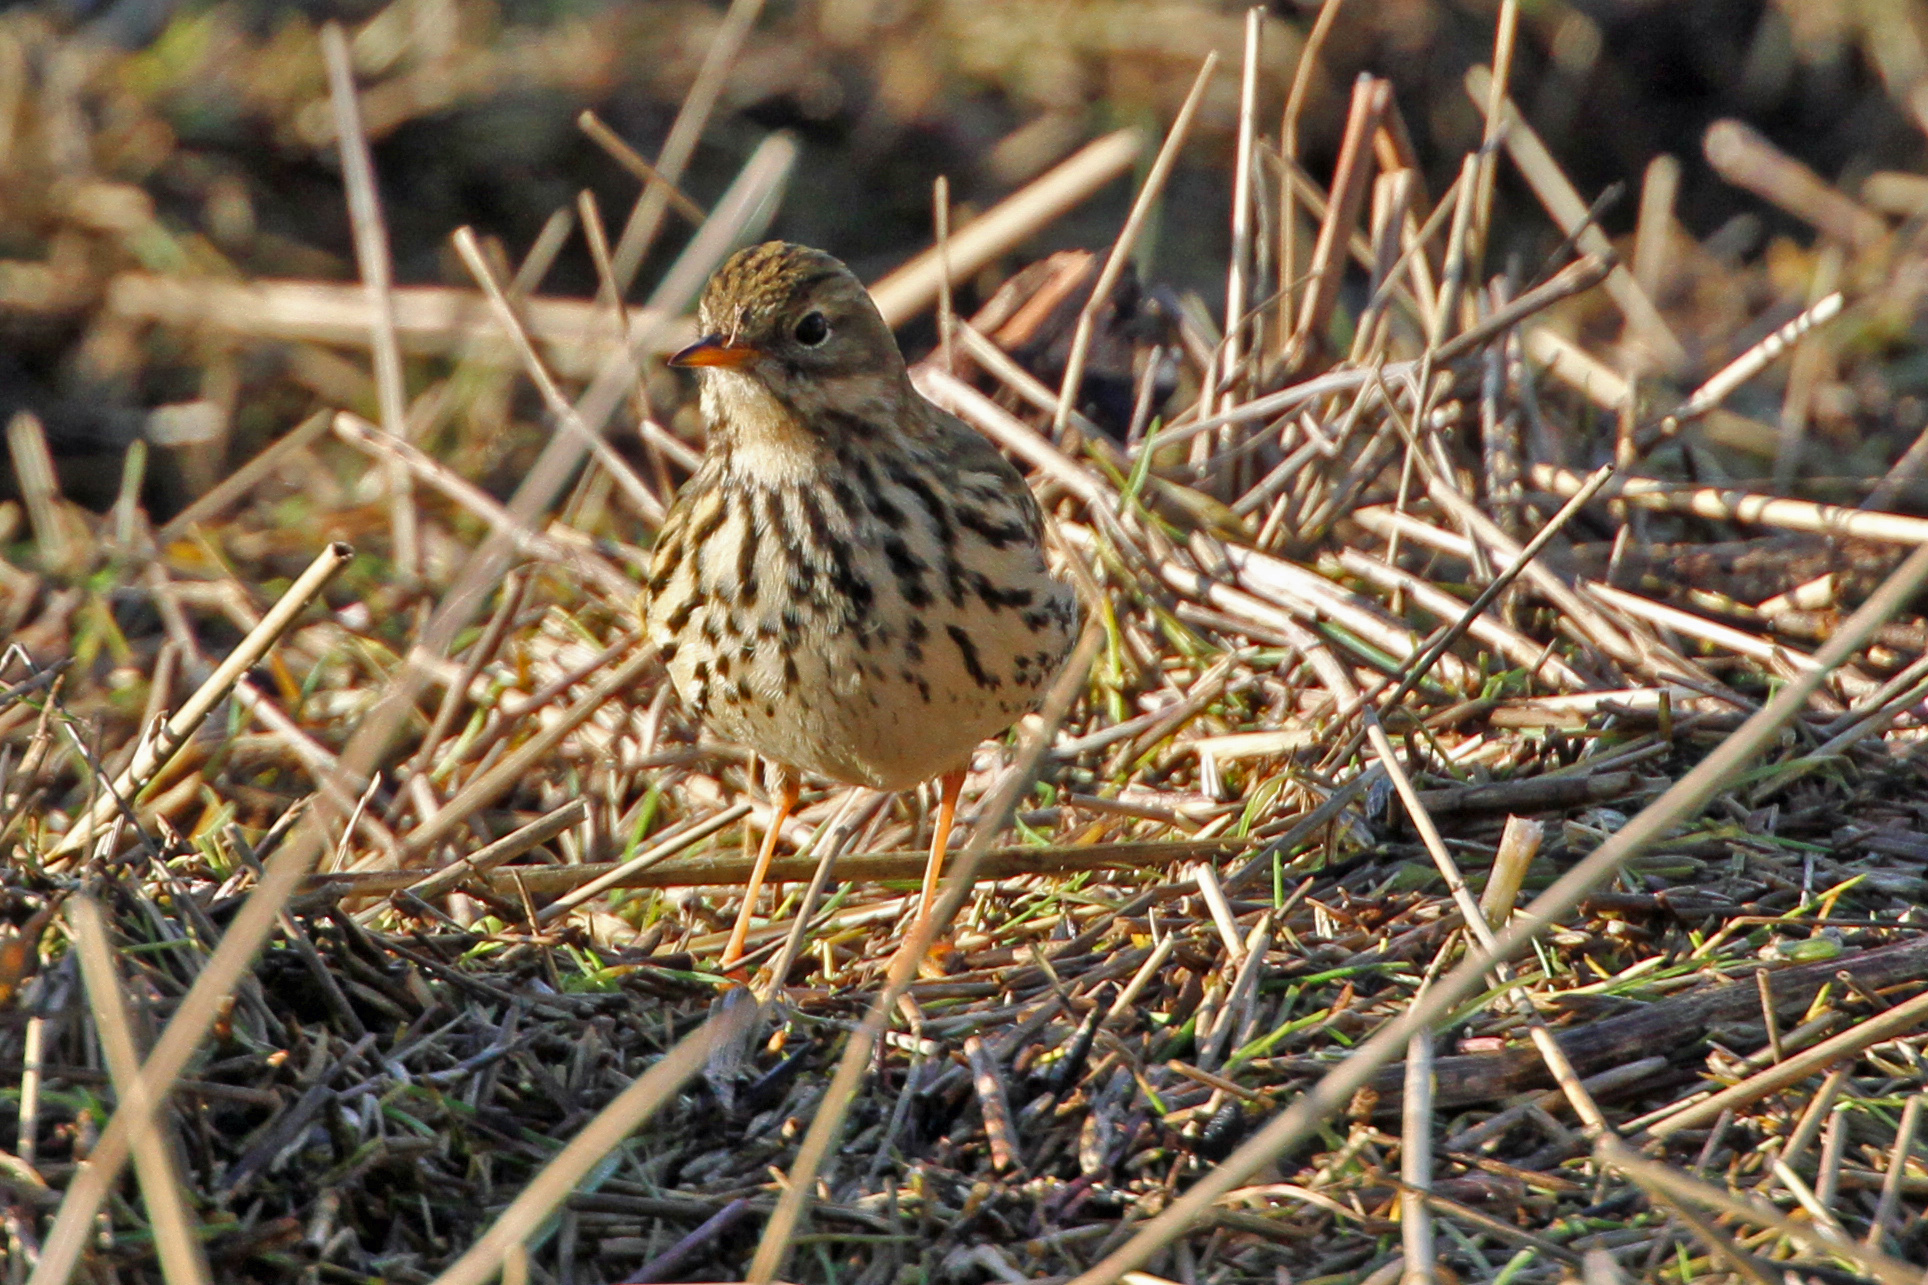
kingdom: Animalia
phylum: Chordata
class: Aves
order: Passeriformes
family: Motacillidae
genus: Anthus
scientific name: Anthus pratensis
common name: Meadow pipit
